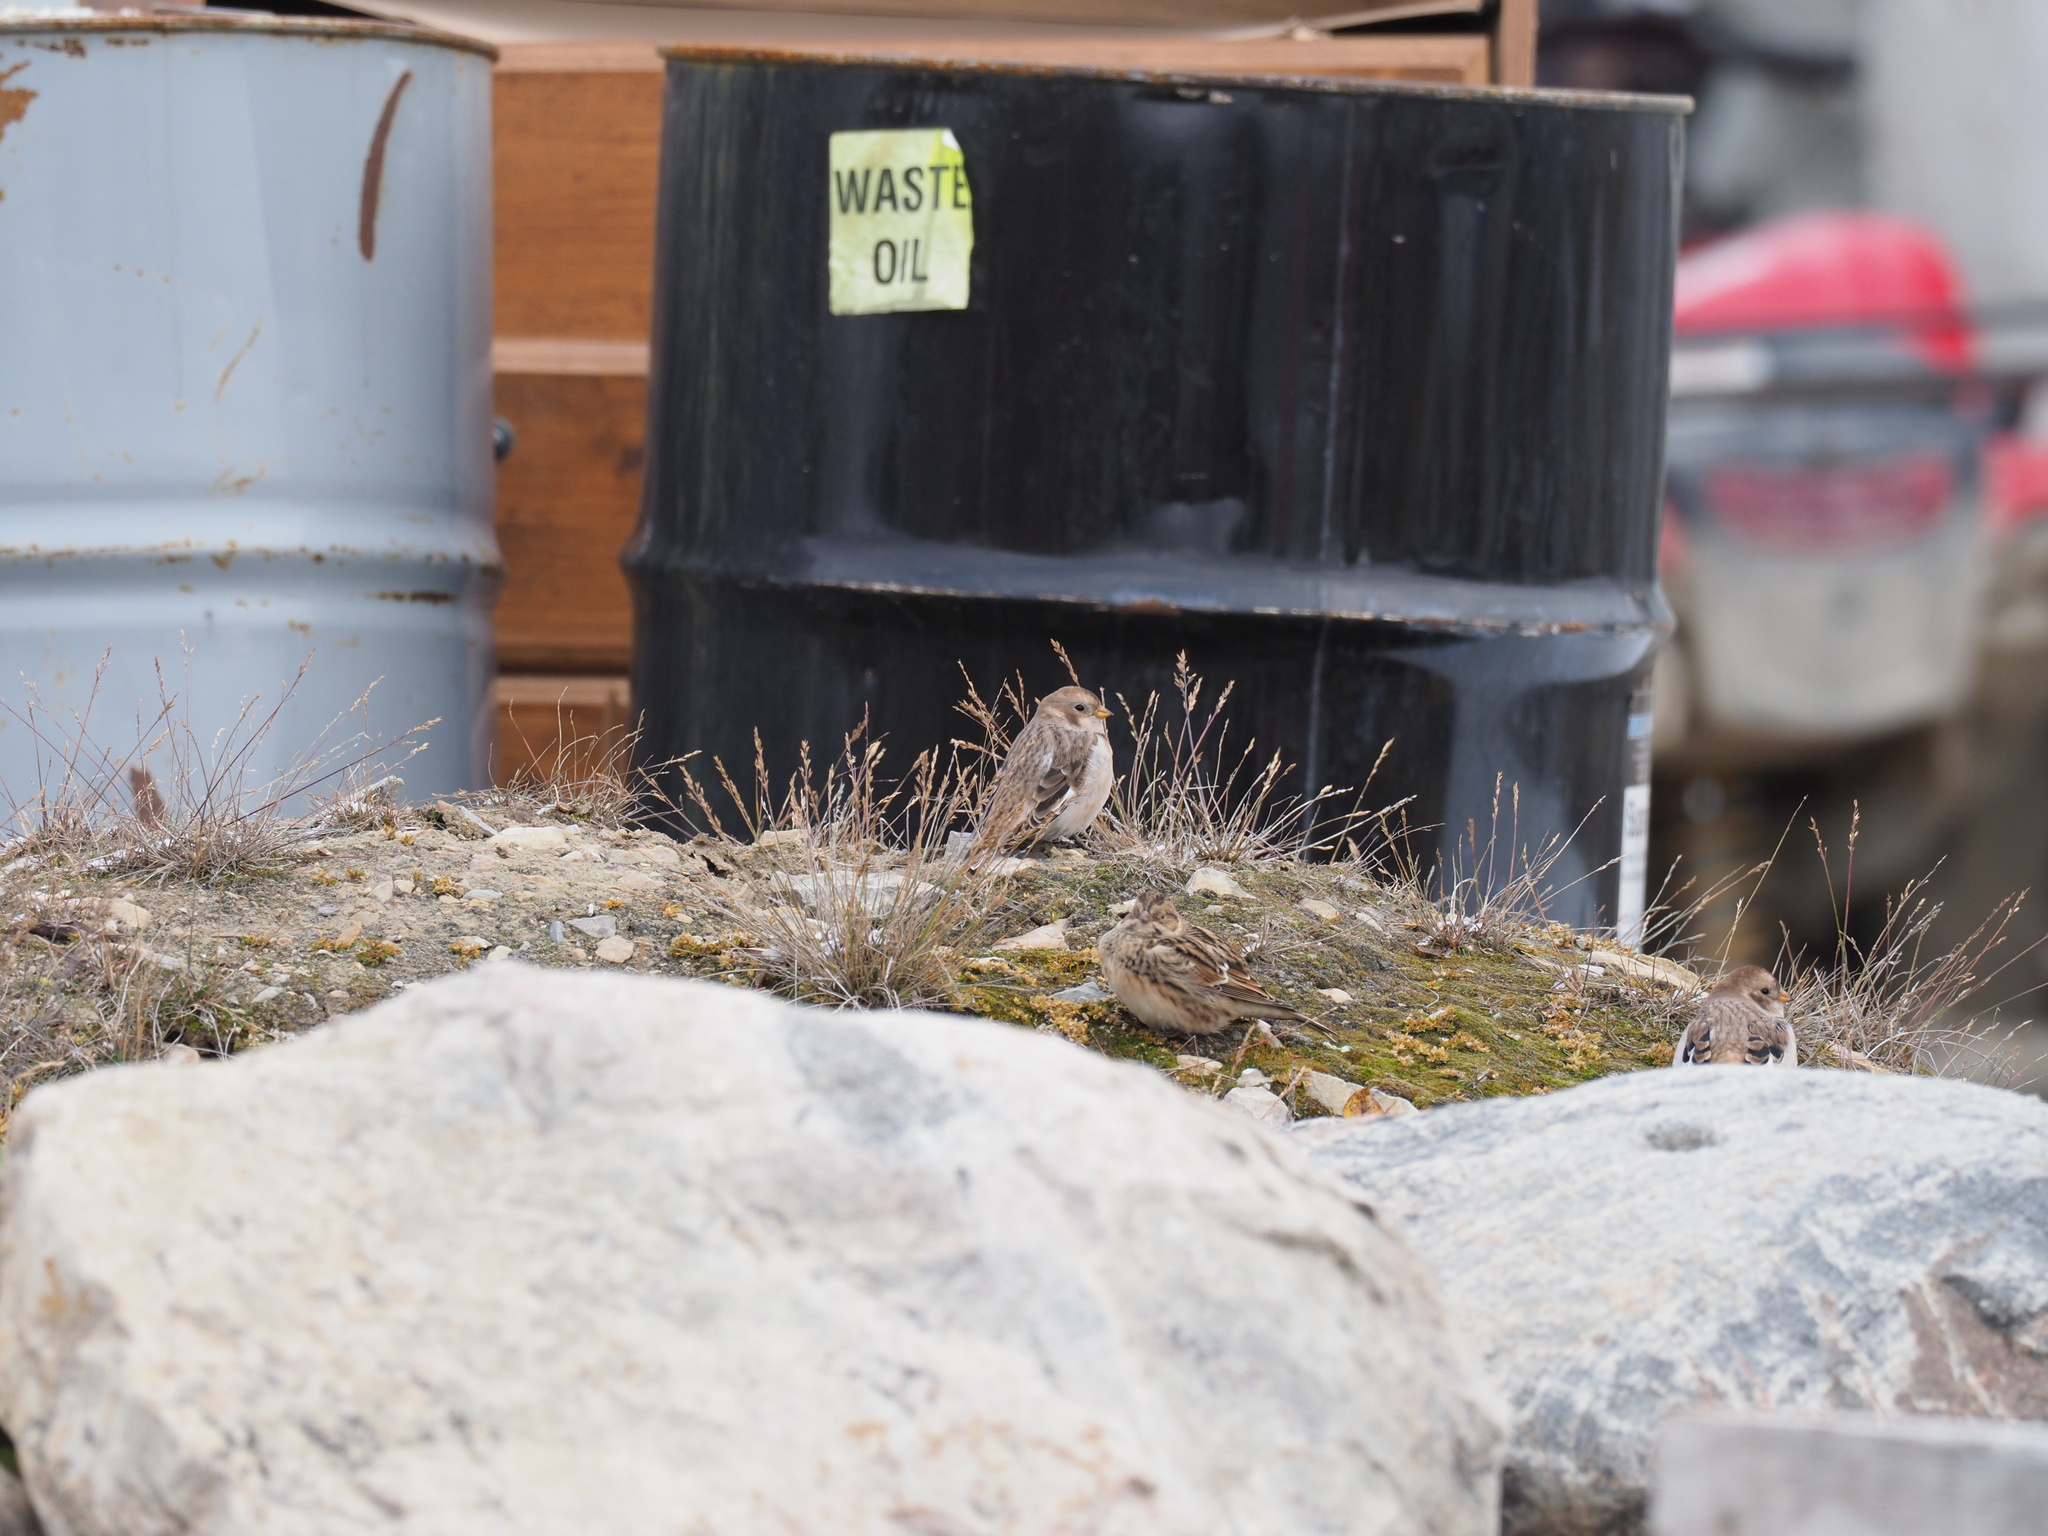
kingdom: Animalia
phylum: Chordata
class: Aves
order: Passeriformes
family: Calcariidae
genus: Plectrophenax
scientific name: Plectrophenax nivalis
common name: Snow bunting
